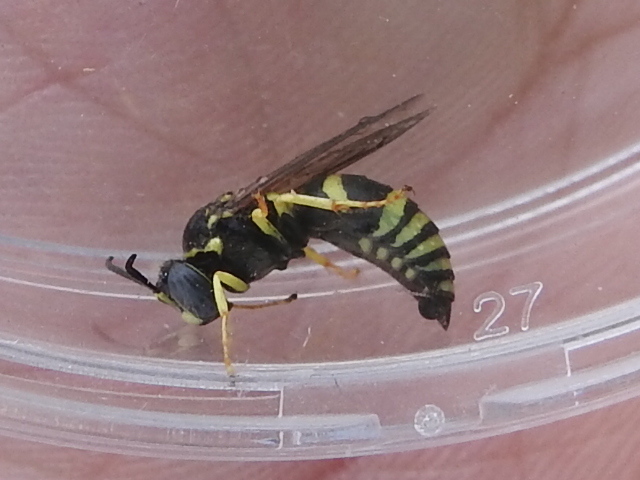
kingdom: Animalia
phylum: Arthropoda
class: Insecta
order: Hymenoptera
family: Crabronidae
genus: Bicyrtes
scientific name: Bicyrtes viduatus
